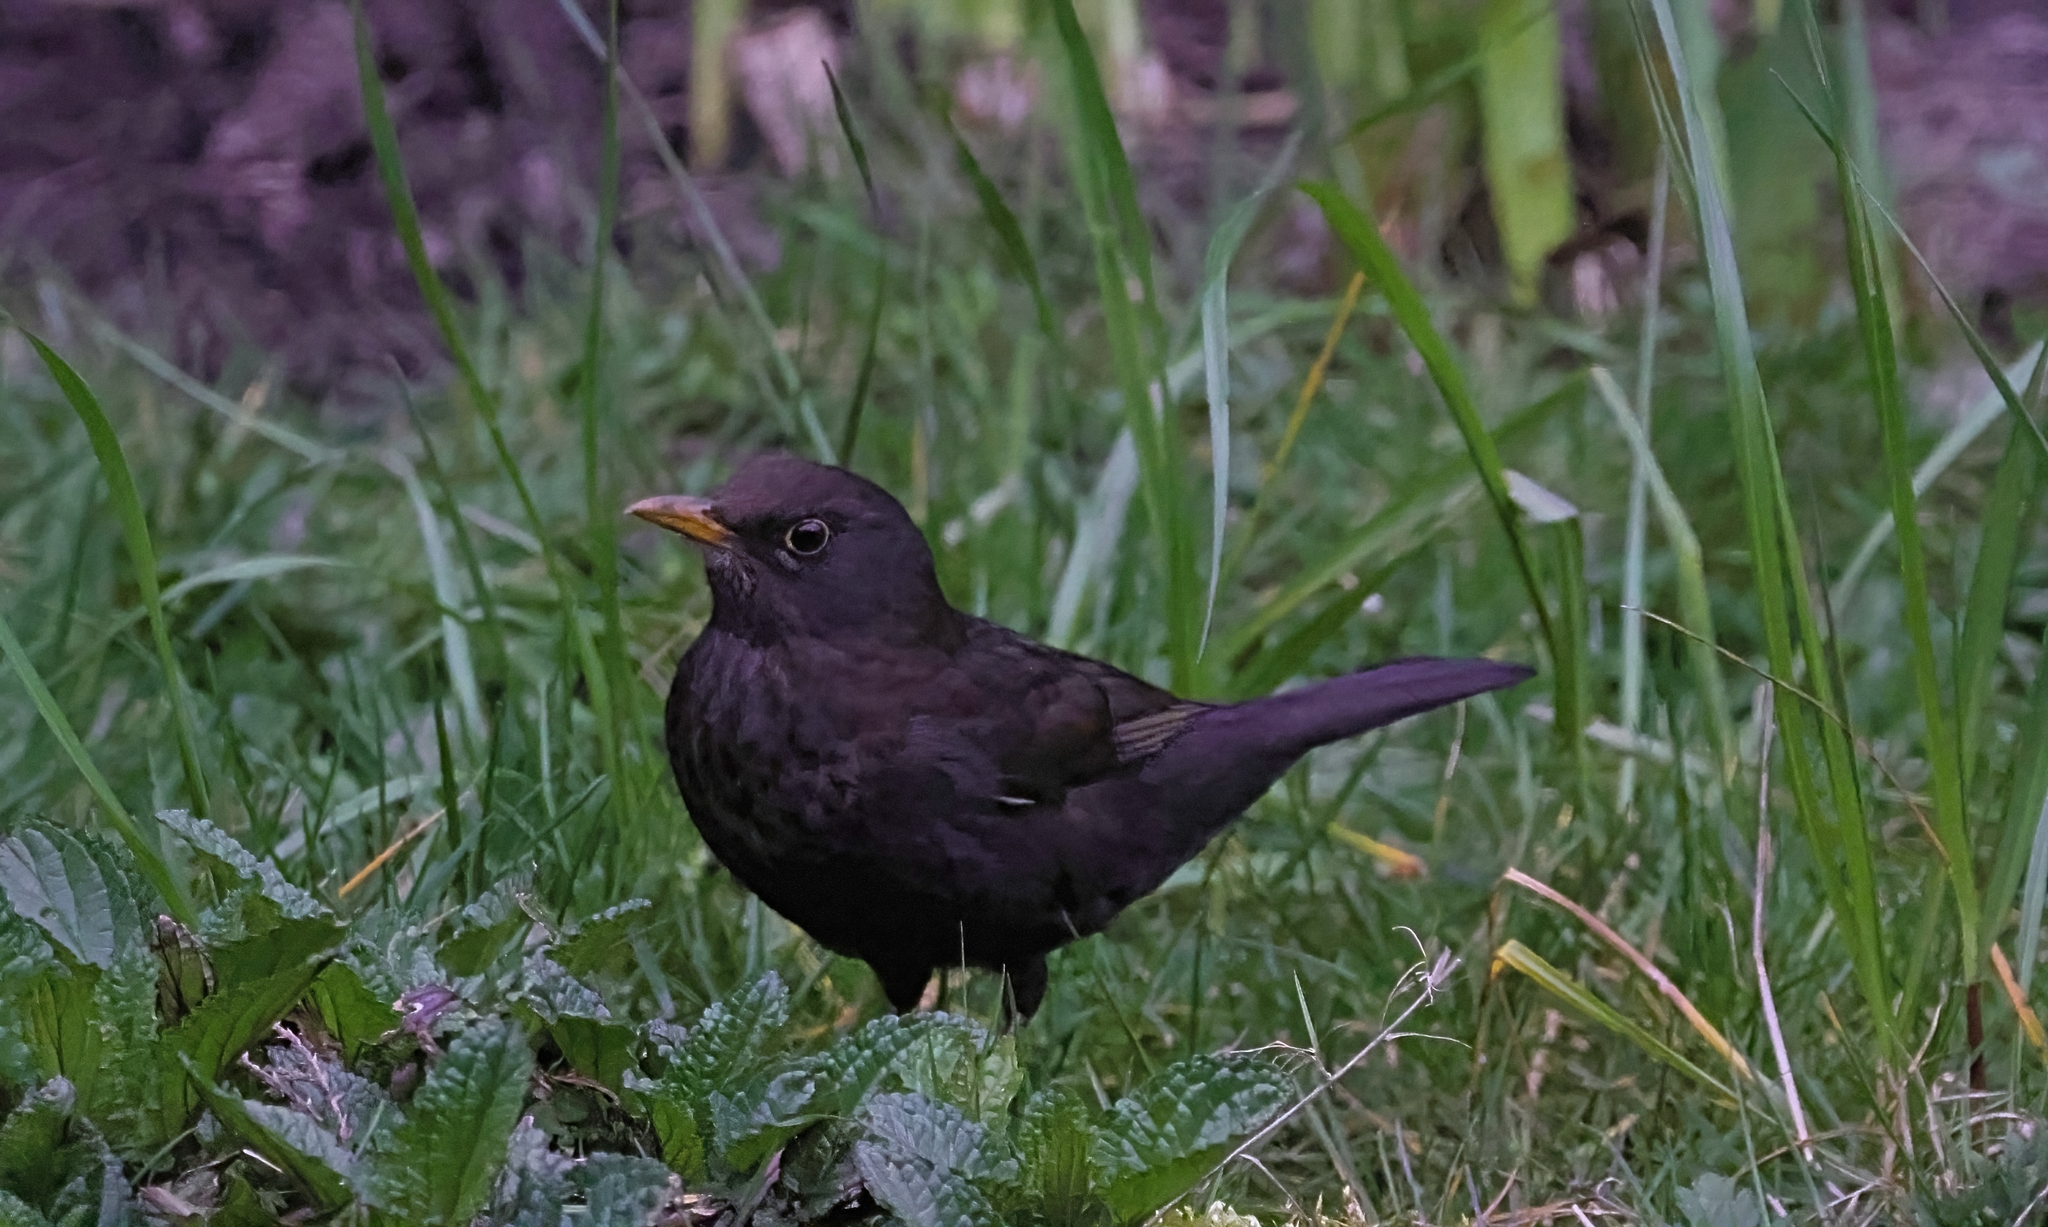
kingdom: Animalia
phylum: Chordata
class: Aves
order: Passeriformes
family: Turdidae
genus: Turdus
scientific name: Turdus merula
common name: Common blackbird
